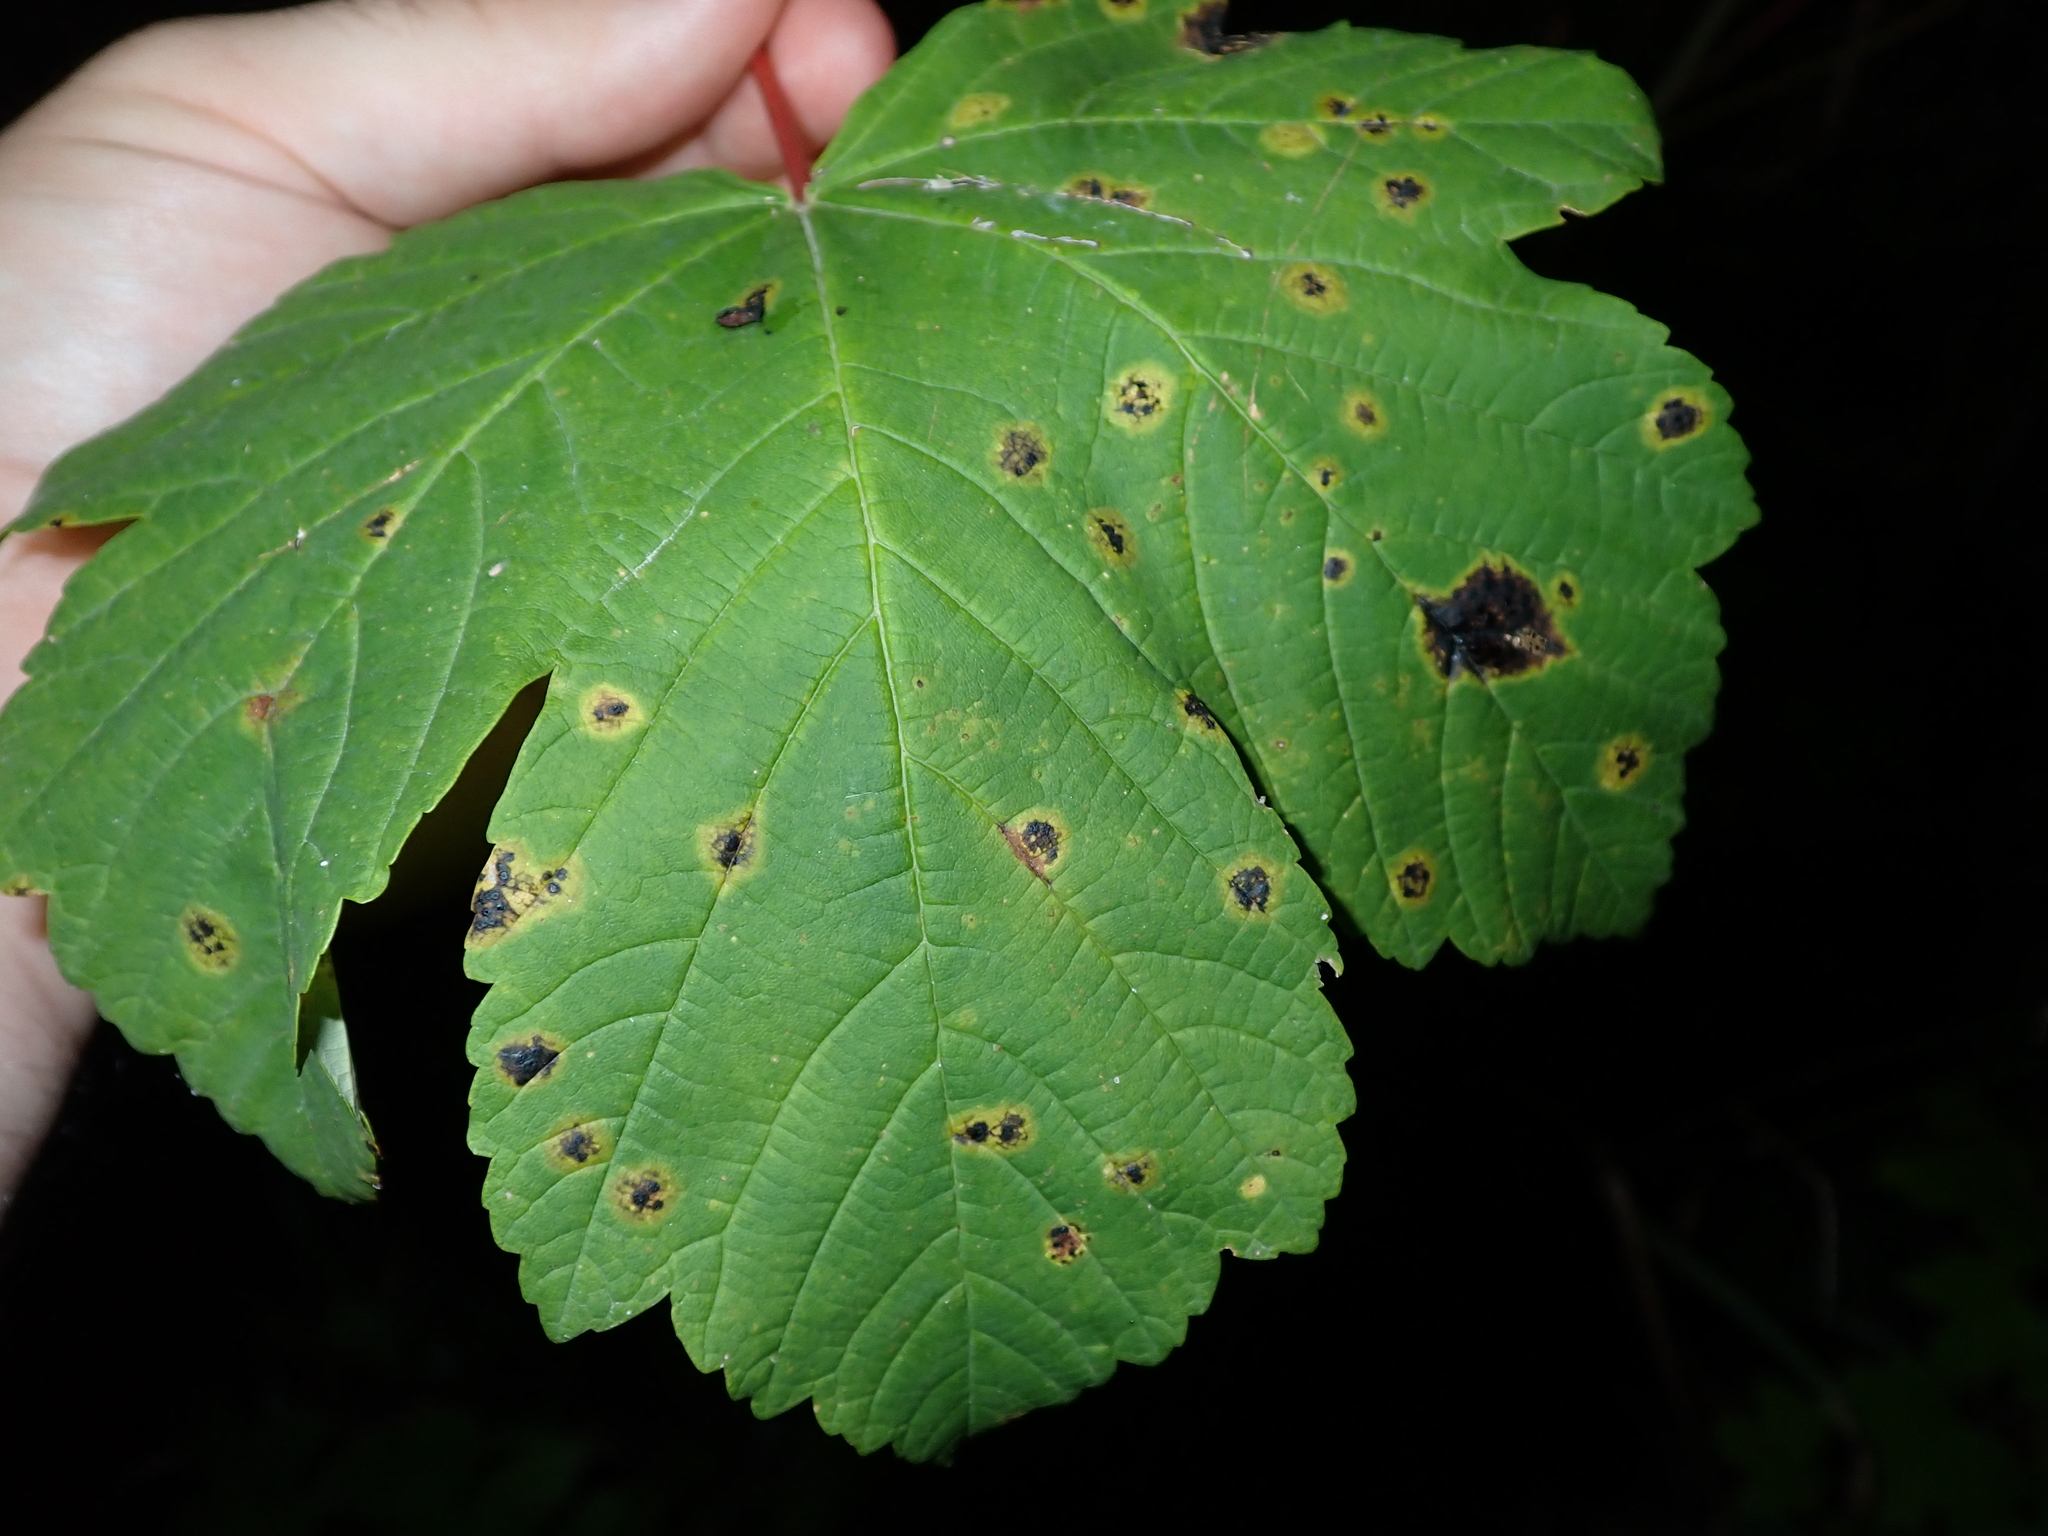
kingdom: Fungi
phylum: Ascomycota
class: Leotiomycetes
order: Rhytismatales
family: Rhytismataceae
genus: Rhytisma
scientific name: Rhytisma acerinum
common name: European tar spot
